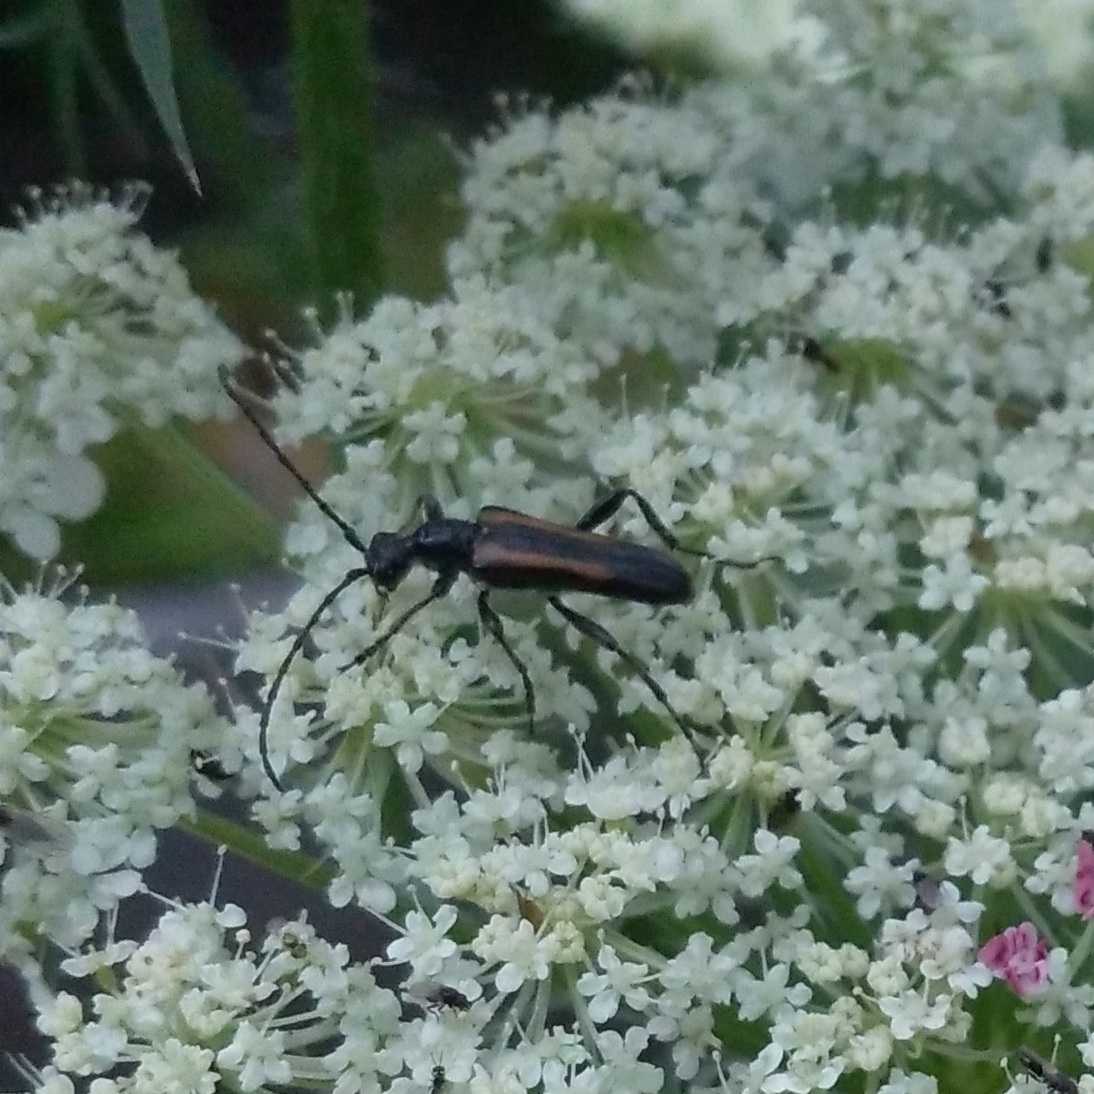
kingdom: Animalia
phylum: Arthropoda
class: Insecta
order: Coleoptera
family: Cerambycidae
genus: Strangalepta
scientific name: Strangalepta abbreviata
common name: Strangalepta flower longhorn beetle
